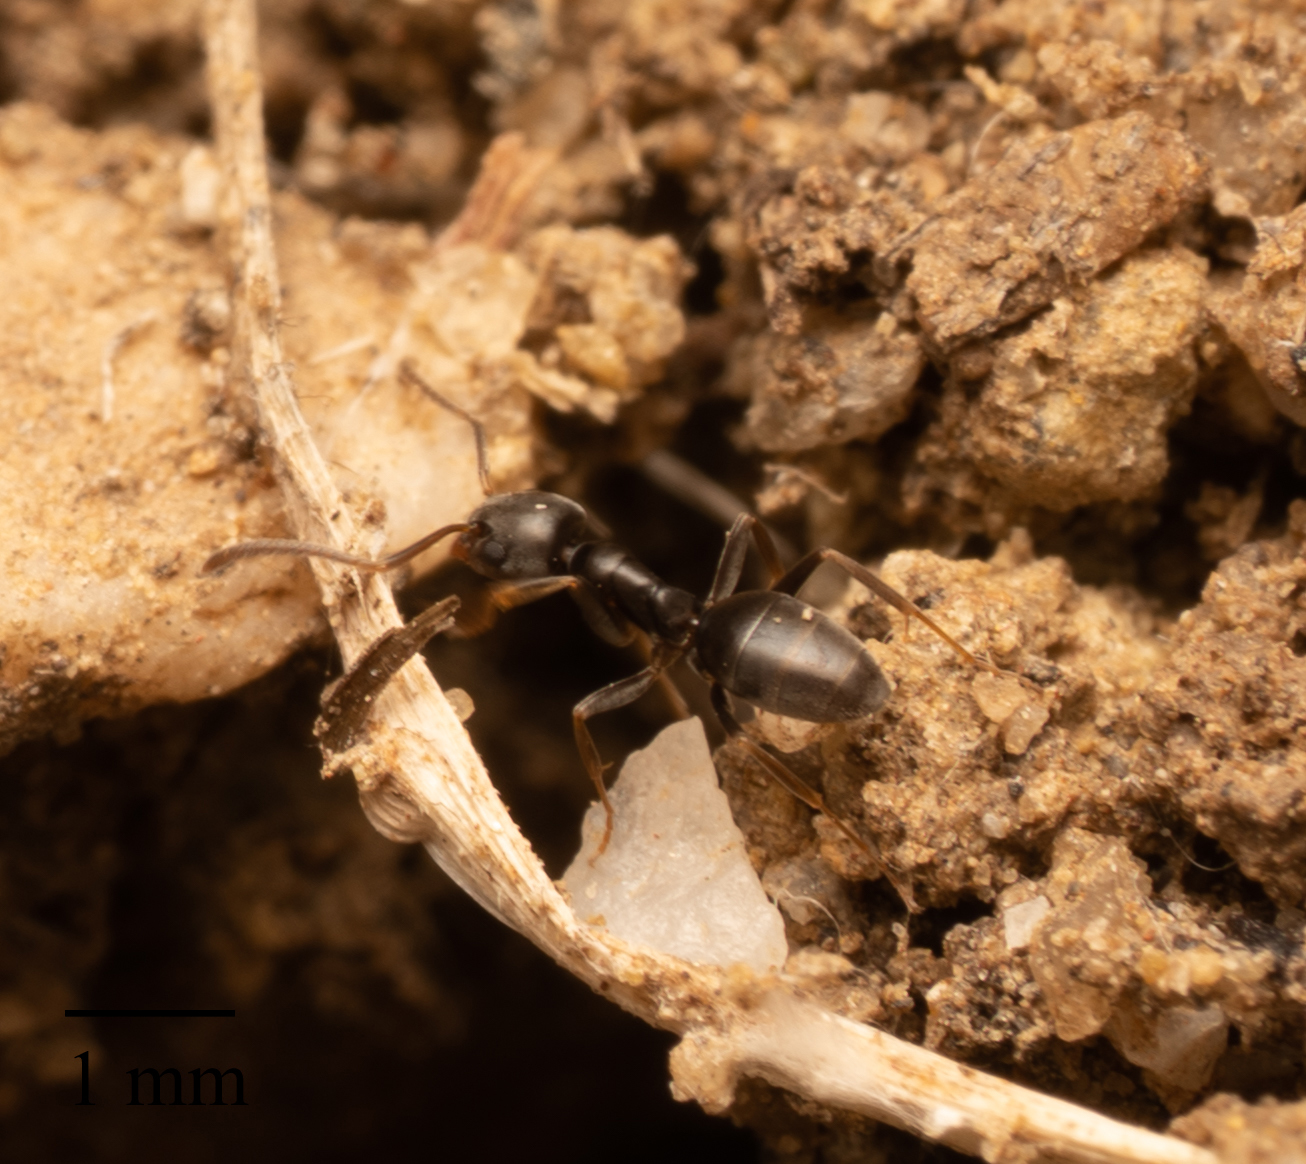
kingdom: Animalia
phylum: Arthropoda
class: Insecta
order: Hymenoptera
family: Formicidae
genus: Tapinoma
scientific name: Tapinoma sessile
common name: Odorous house ant
